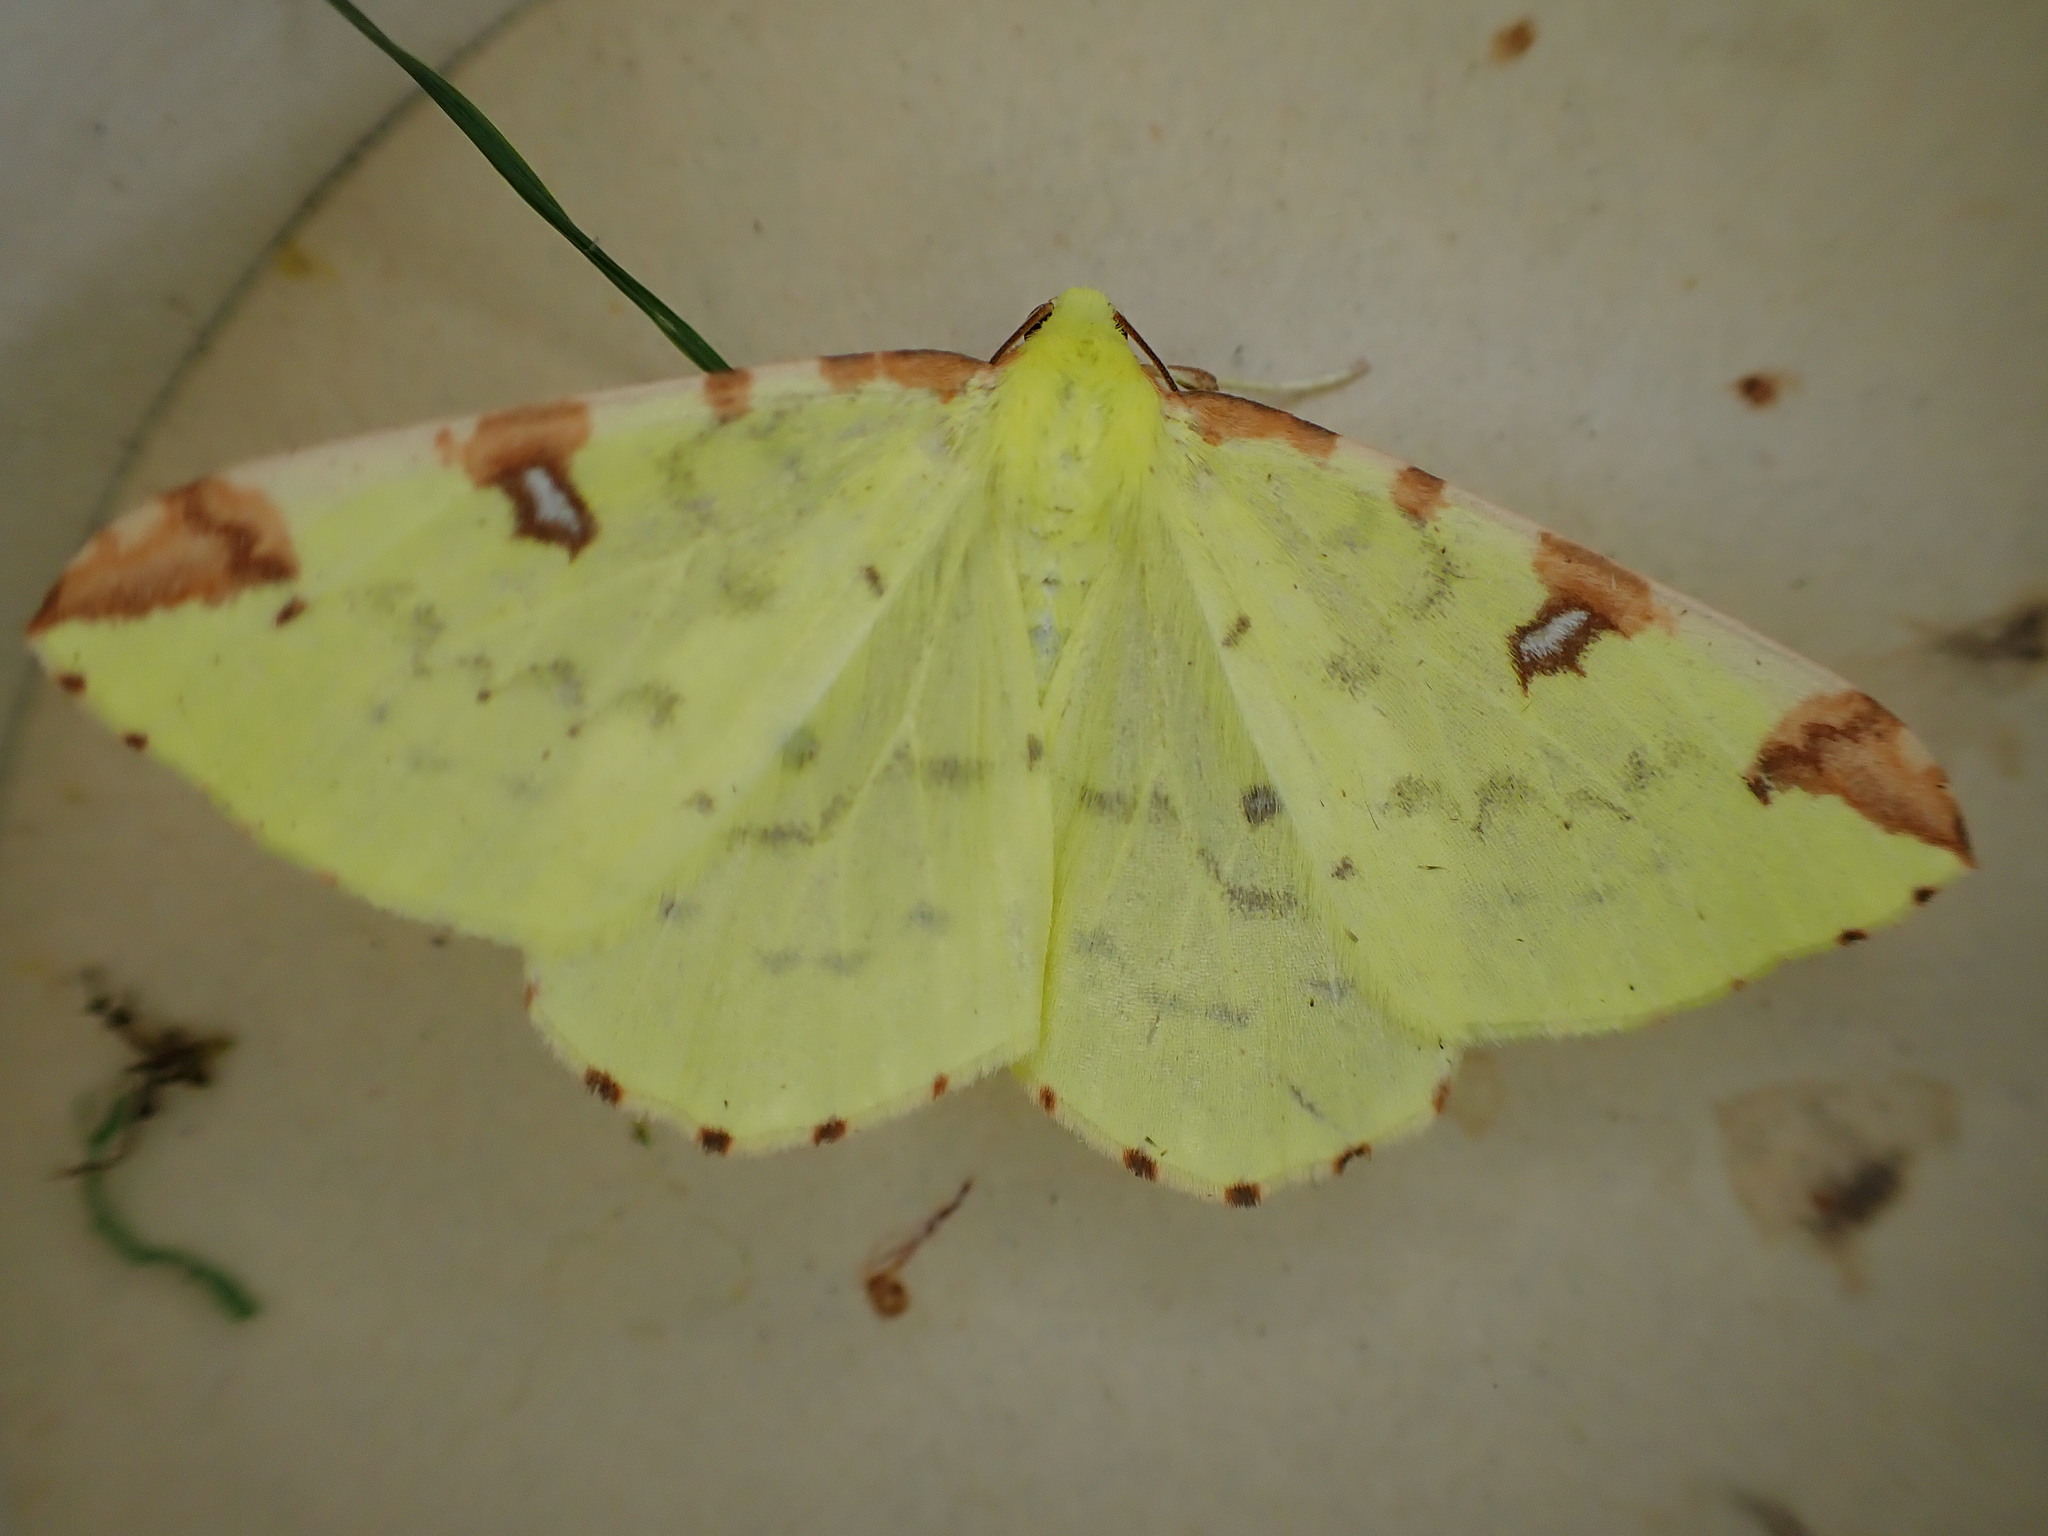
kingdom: Animalia
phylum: Arthropoda
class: Insecta
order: Lepidoptera
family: Geometridae
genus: Opisthograptis
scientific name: Opisthograptis luteolata
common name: Brimstone moth
